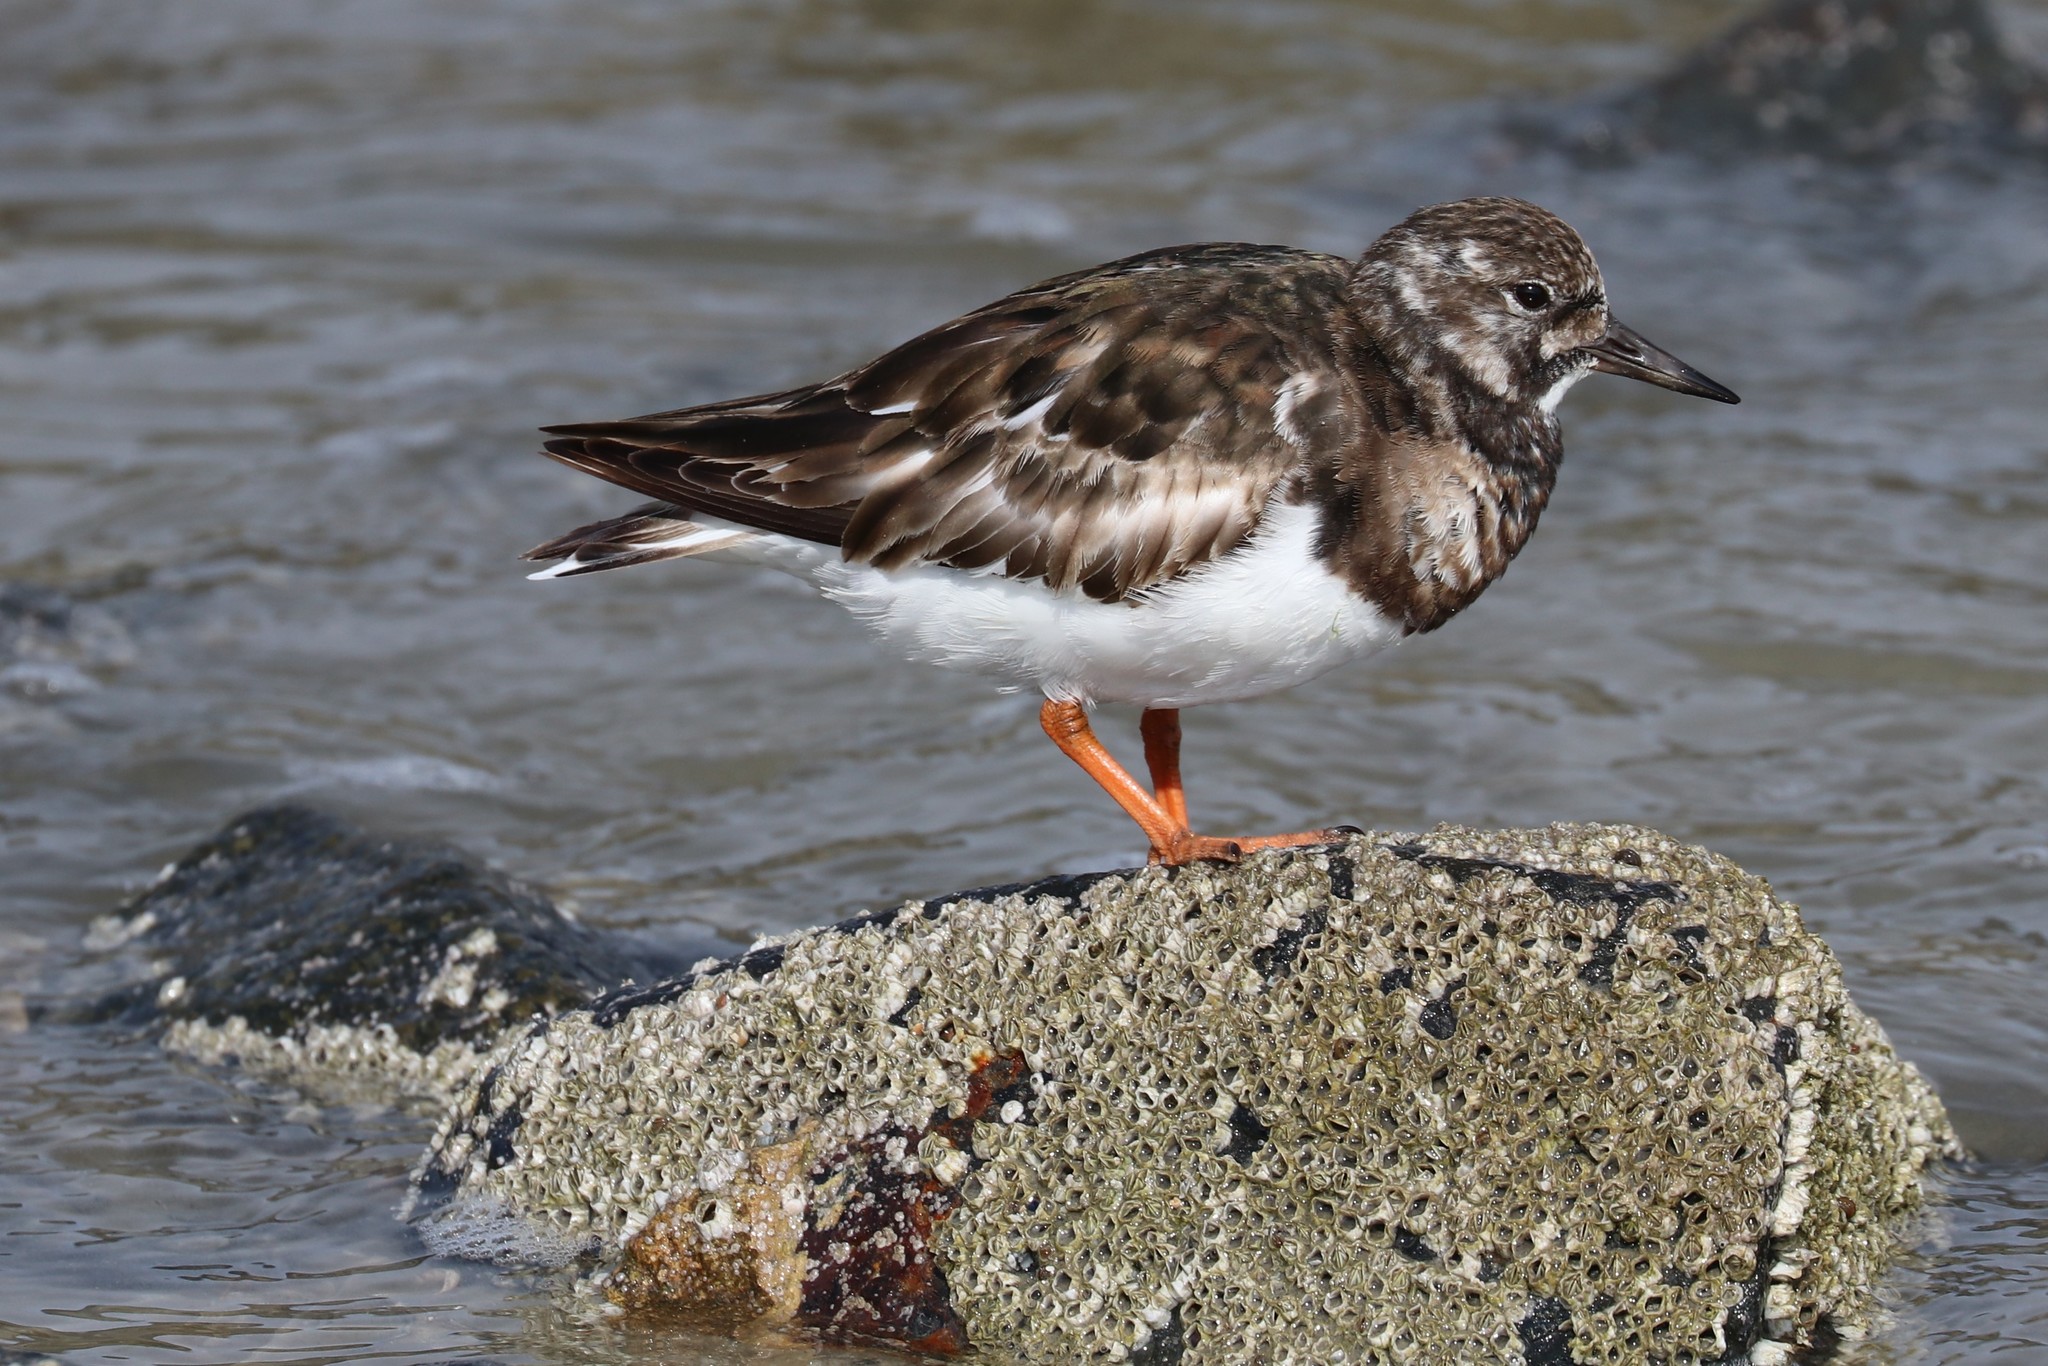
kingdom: Animalia
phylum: Chordata
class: Aves
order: Charadriiformes
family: Scolopacidae
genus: Arenaria
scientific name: Arenaria interpres
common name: Ruddy turnstone
